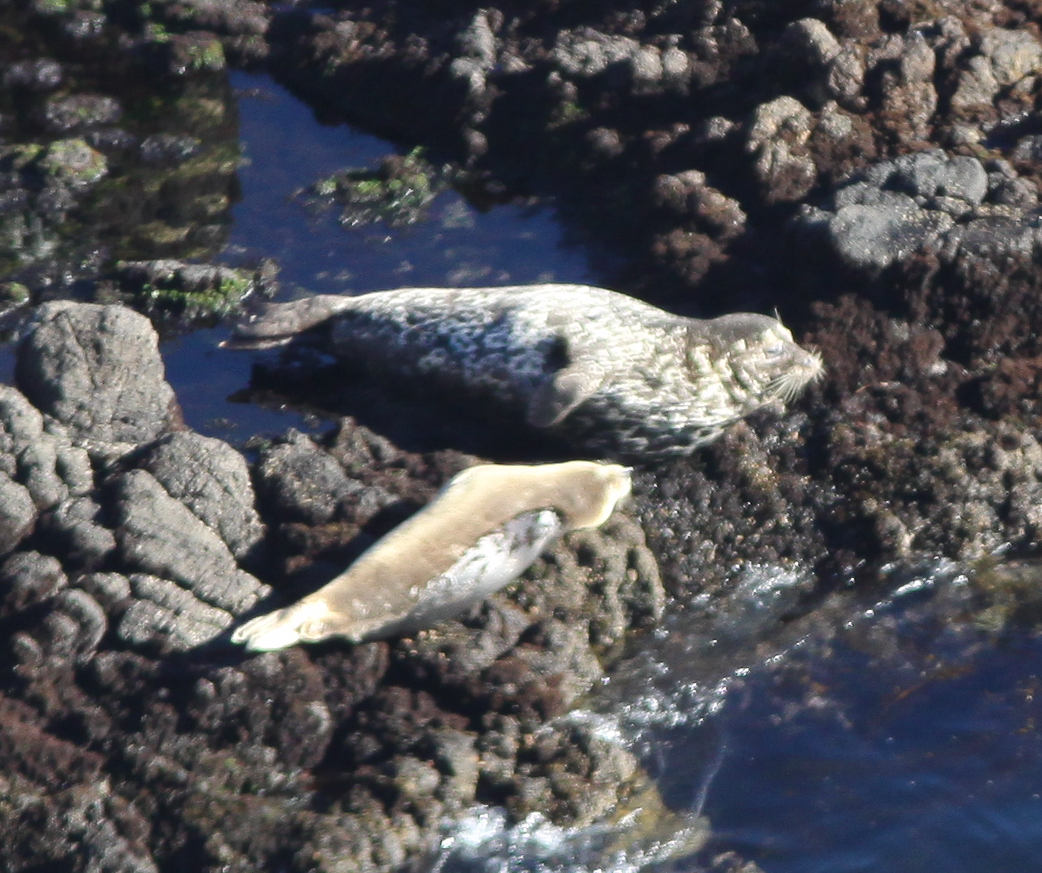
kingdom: Animalia
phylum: Chordata
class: Mammalia
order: Carnivora
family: Phocidae
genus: Phoca
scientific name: Phoca vitulina
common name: Harbor seal
